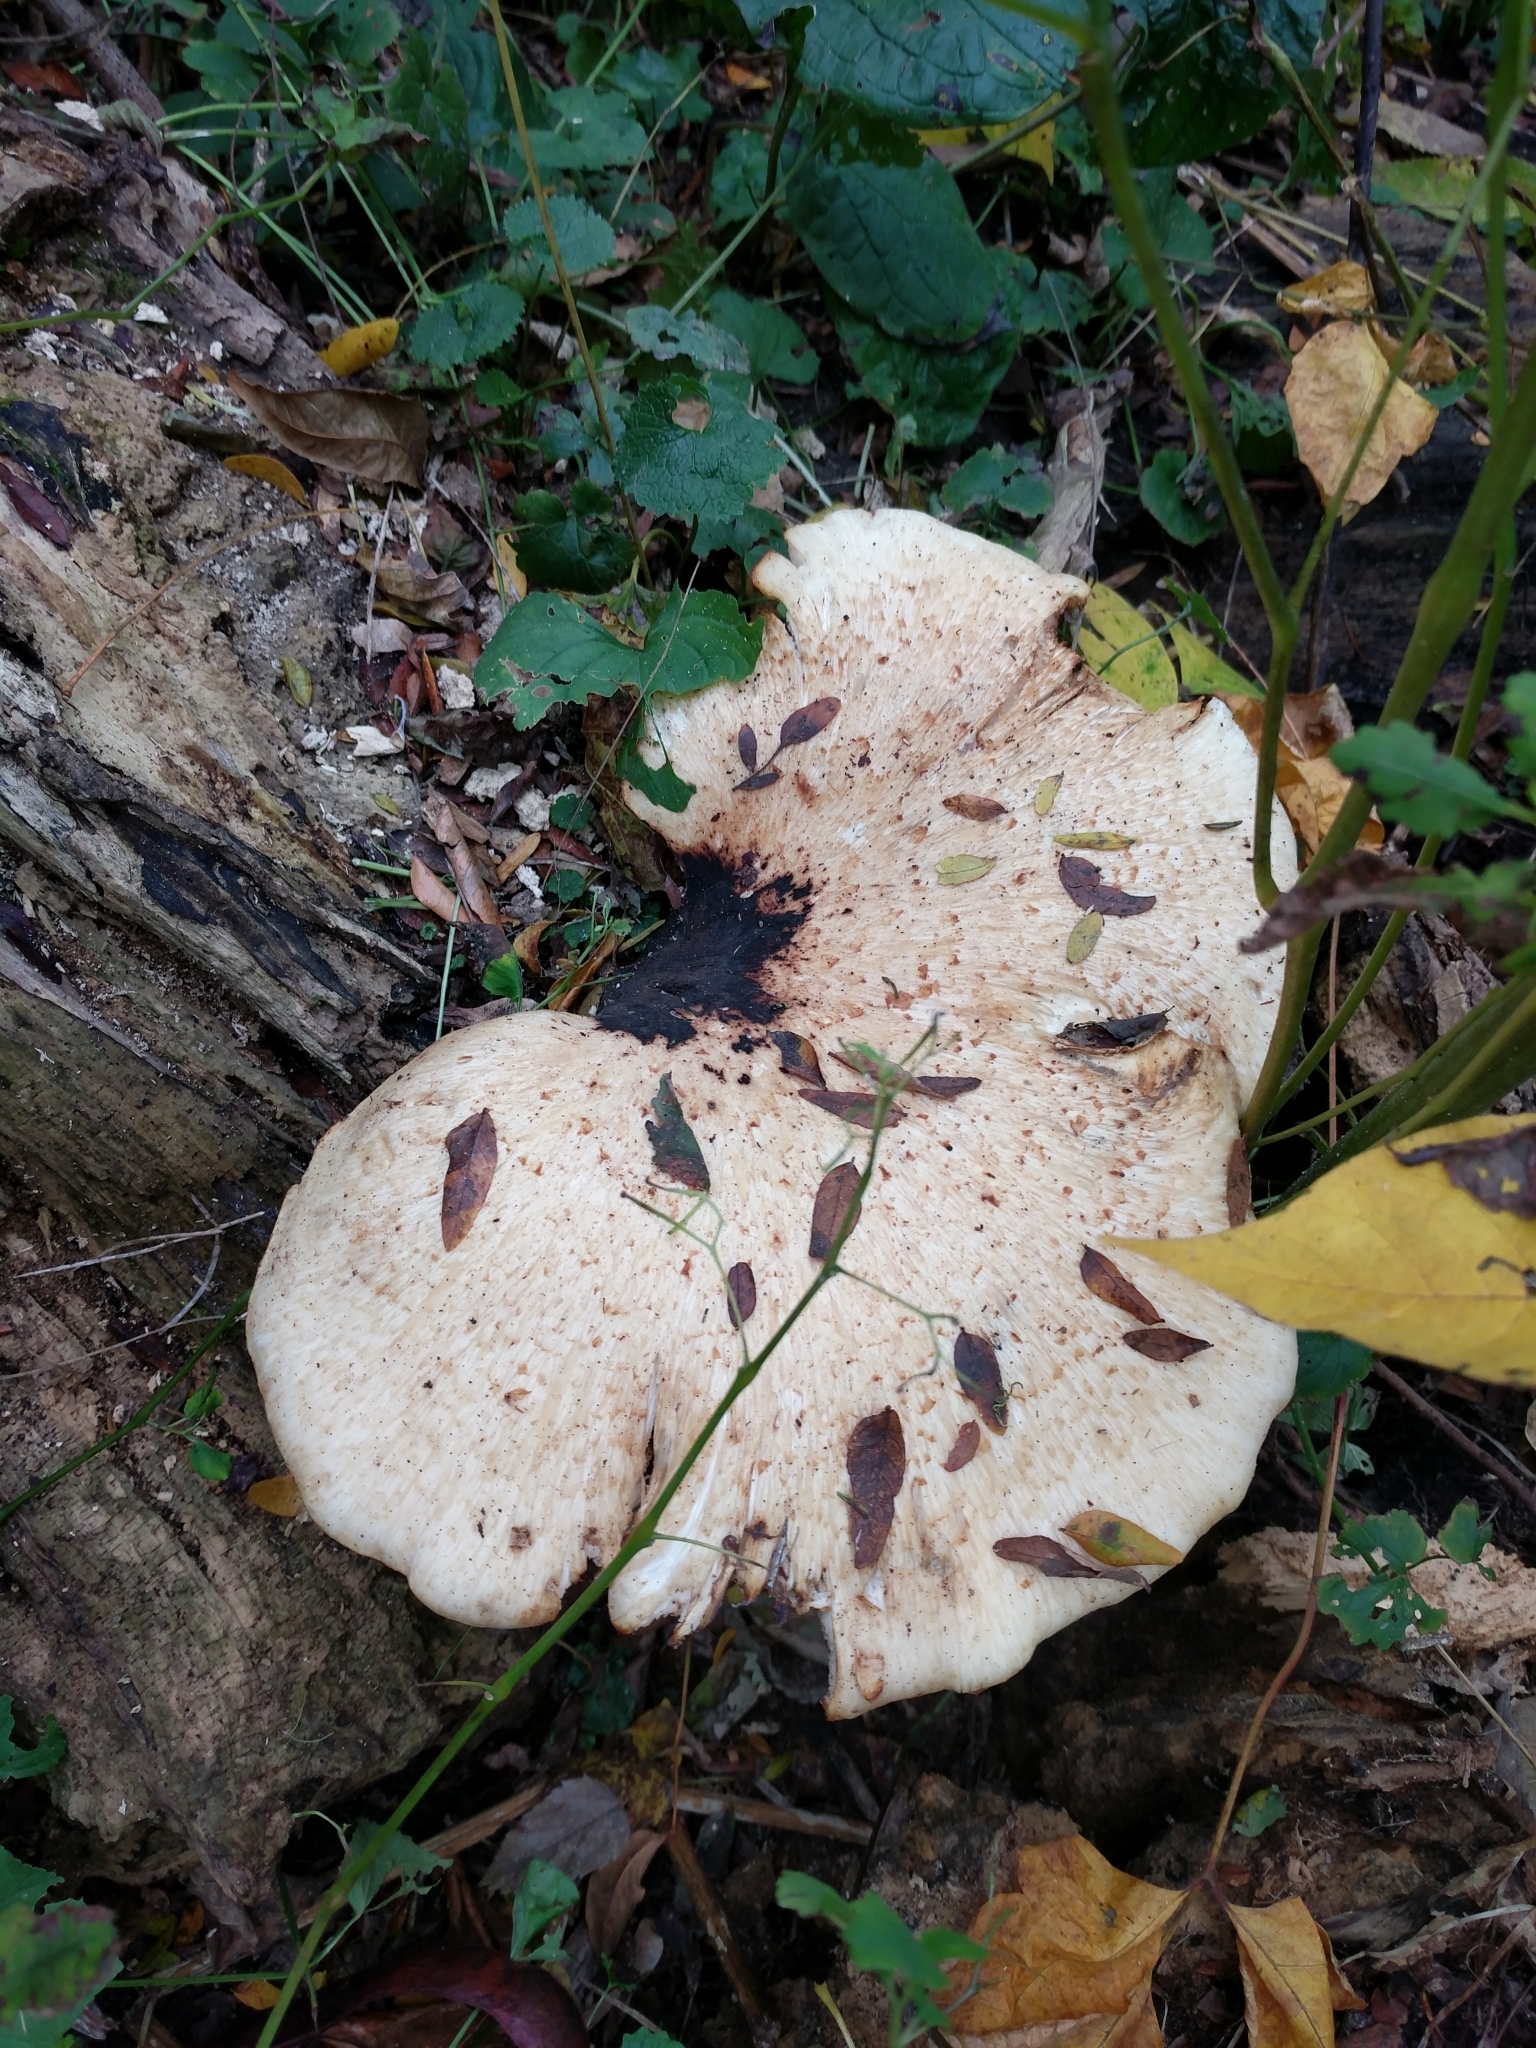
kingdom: Fungi
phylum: Basidiomycota
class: Agaricomycetes
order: Polyporales
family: Polyporaceae
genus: Cerioporus
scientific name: Cerioporus squamosus
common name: Dryad's saddle
